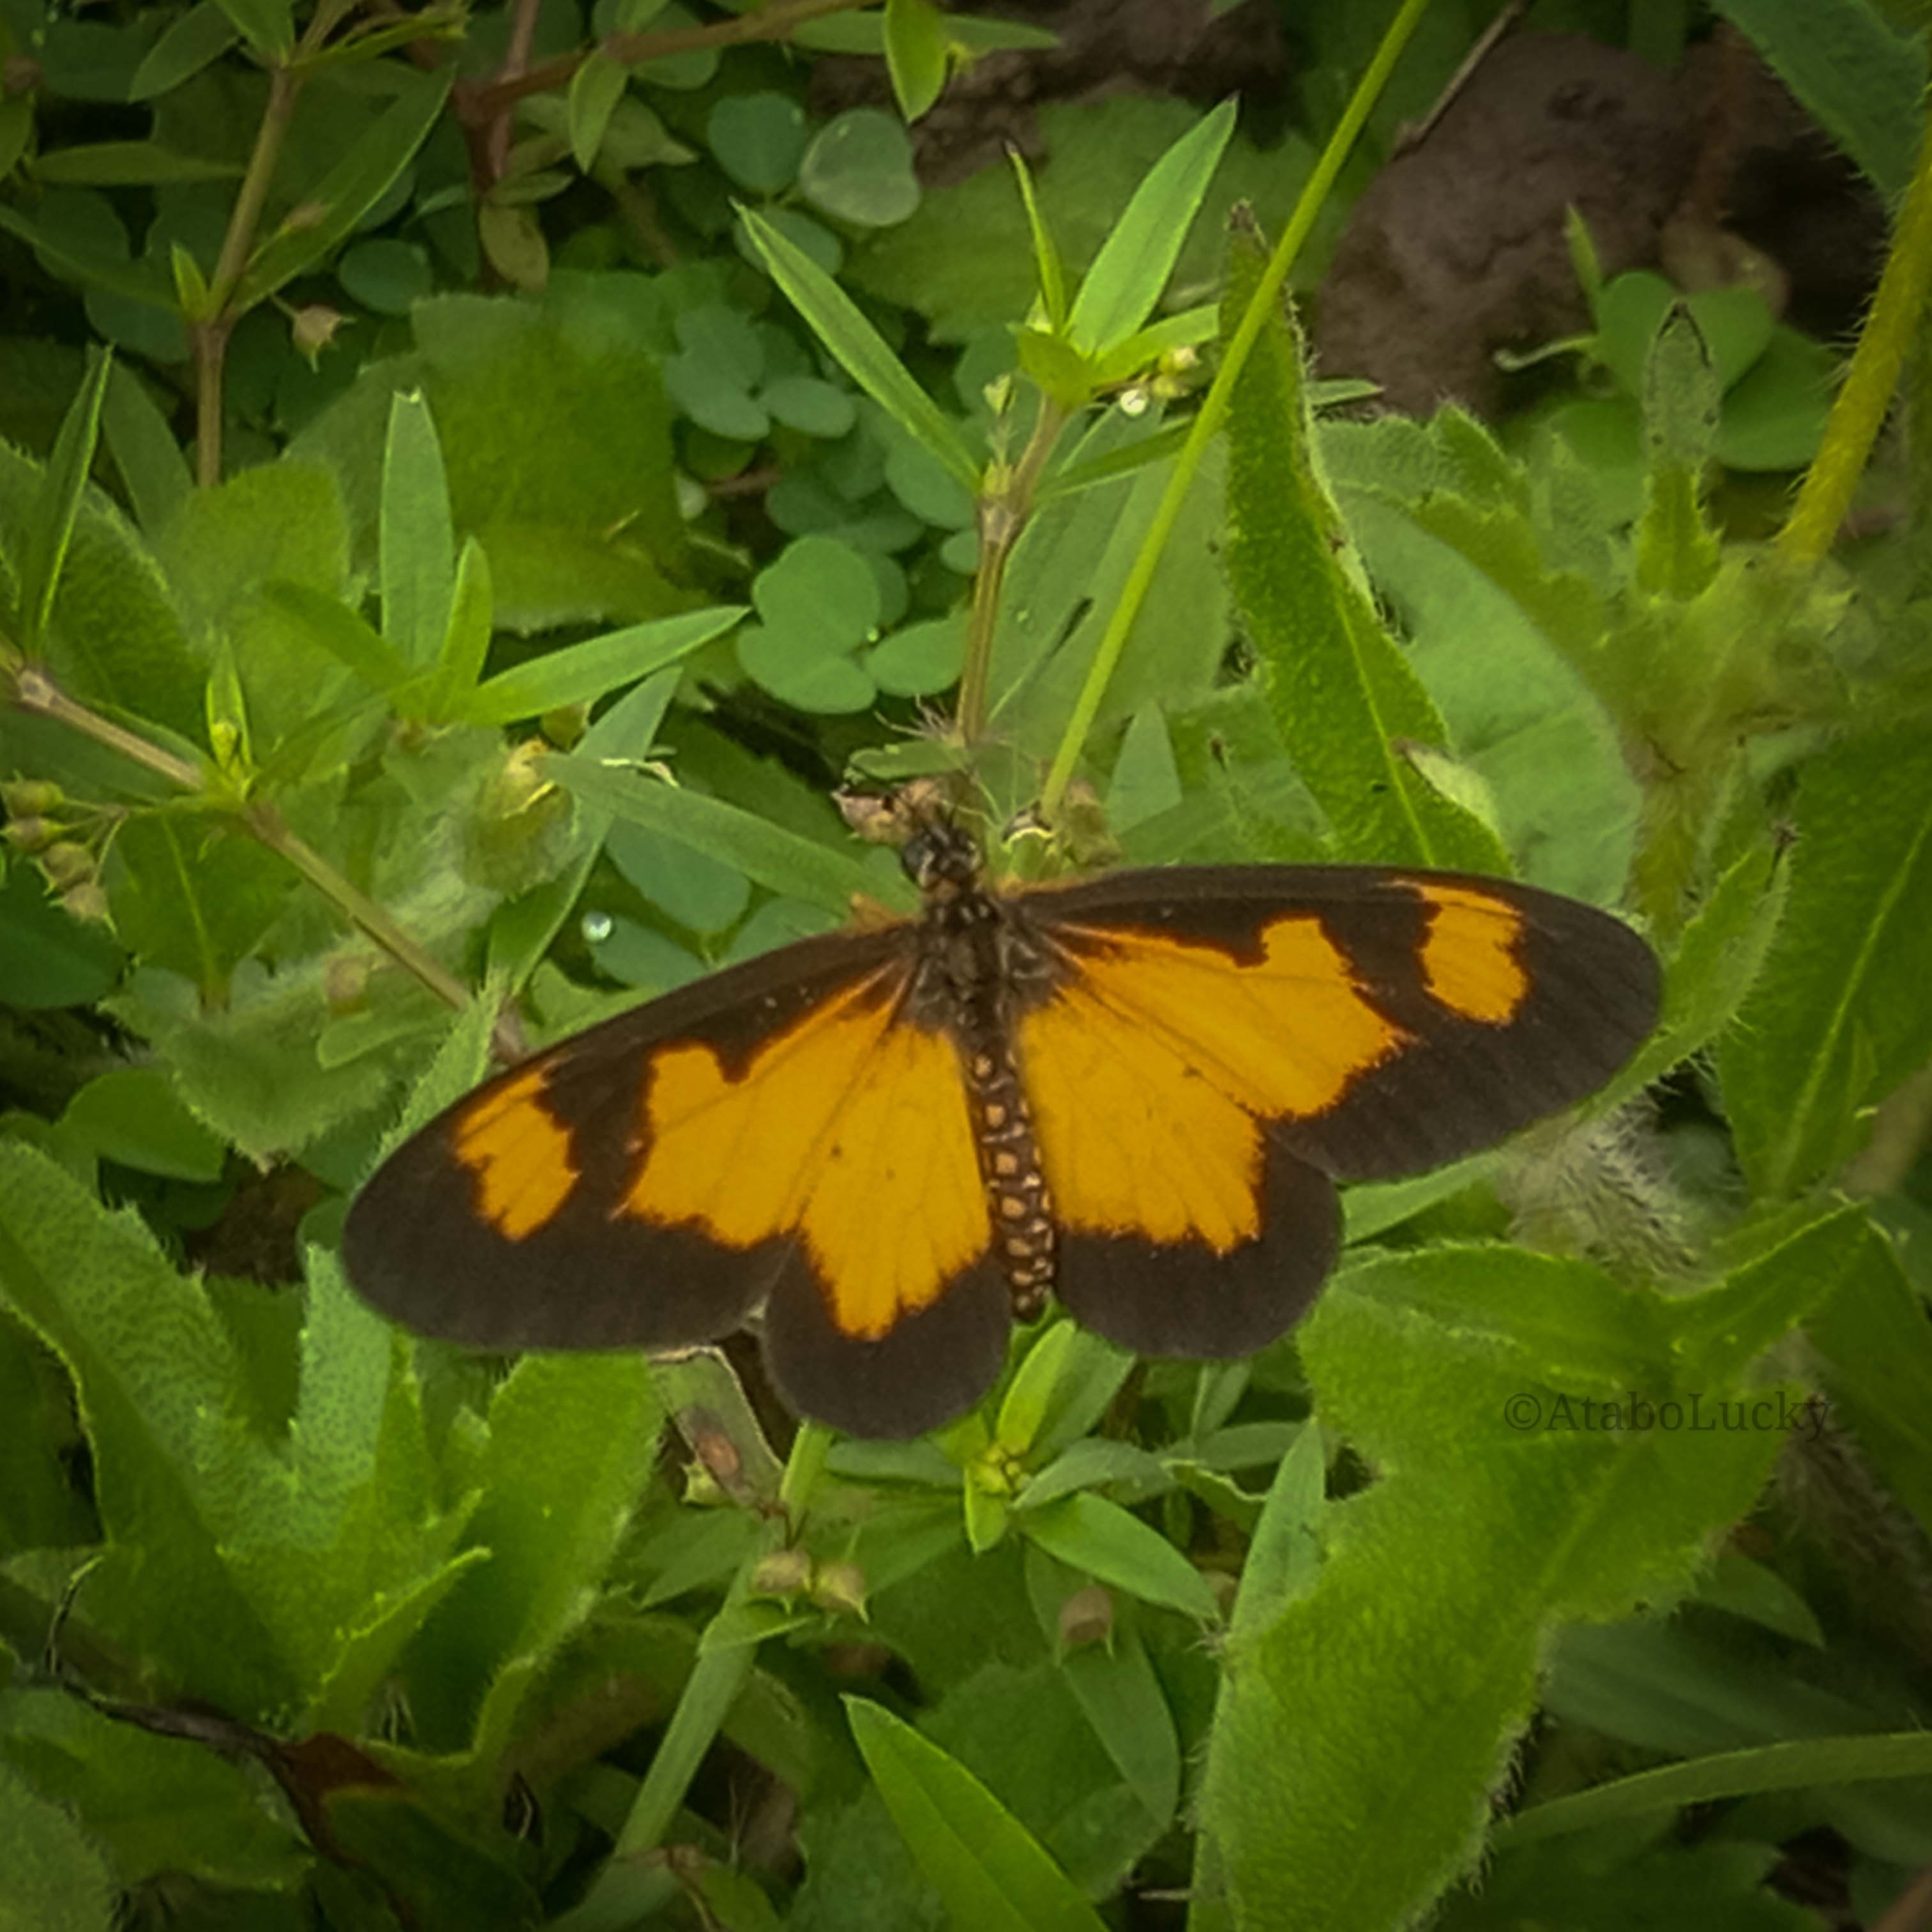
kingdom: Animalia
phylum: Arthropoda
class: Insecta
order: Lepidoptera
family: Nymphalidae
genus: Acraea
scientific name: Acraea Telchinia acerata
